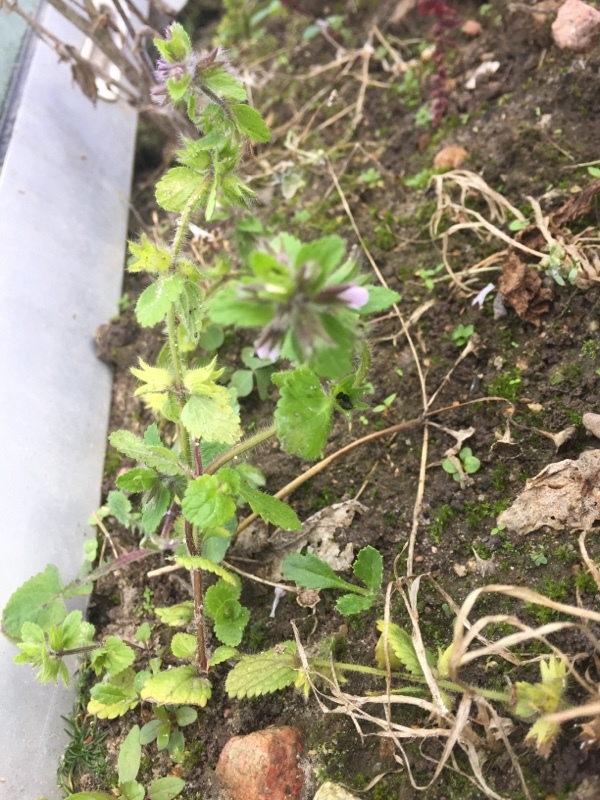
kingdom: Plantae
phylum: Tracheophyta
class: Magnoliopsida
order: Lamiales
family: Lamiaceae
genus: Stachys
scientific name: Stachys arvensis
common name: Field woundwort
